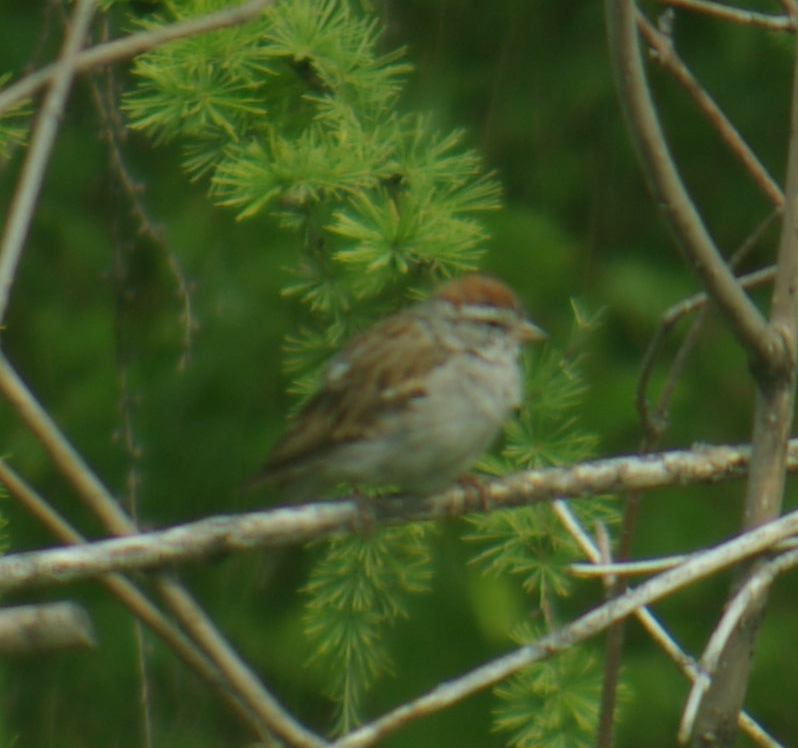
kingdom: Animalia
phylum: Chordata
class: Aves
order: Passeriformes
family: Passerellidae
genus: Spizella
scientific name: Spizella passerina
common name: Chipping sparrow
